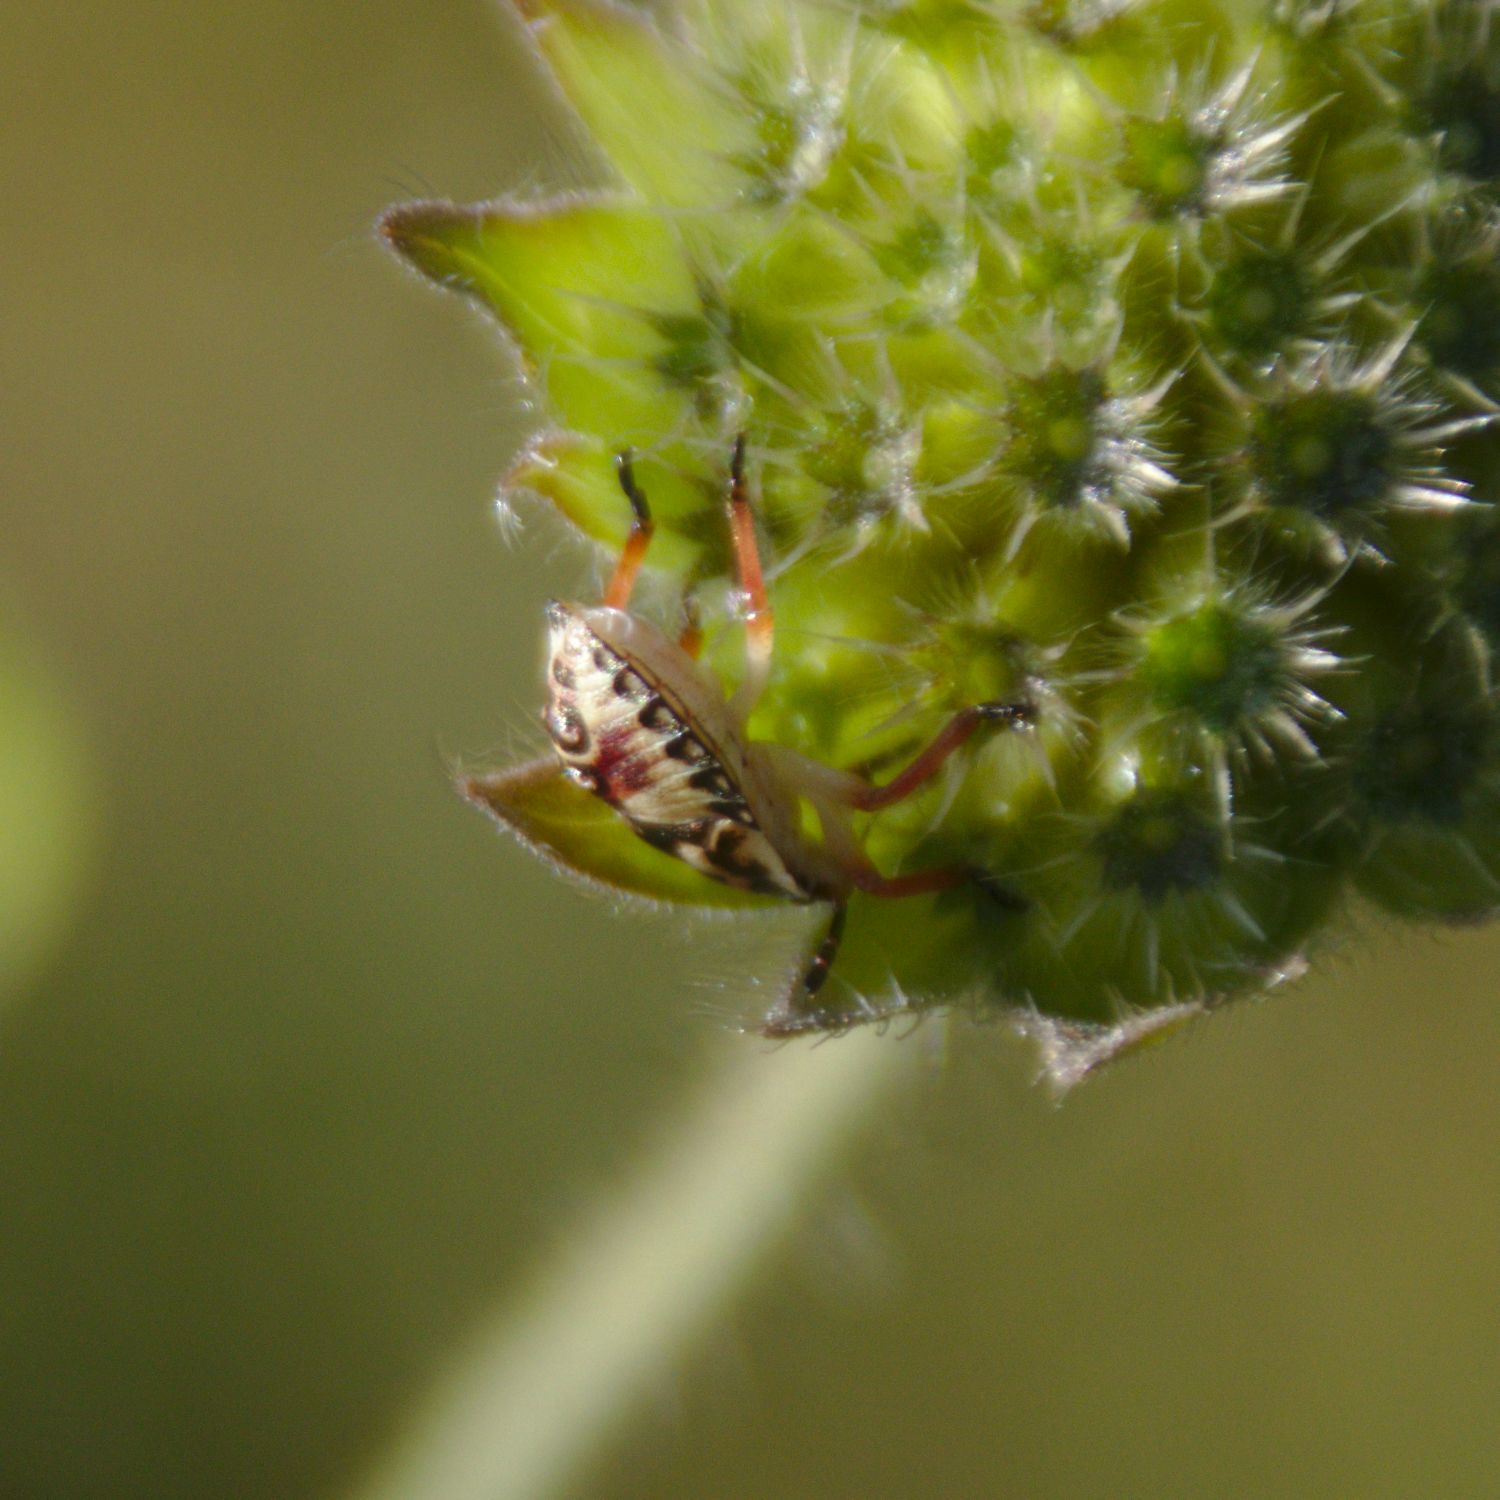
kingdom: Animalia
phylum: Arthropoda
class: Insecta
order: Hemiptera
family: Pentatomidae
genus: Carpocoris
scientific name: Carpocoris
